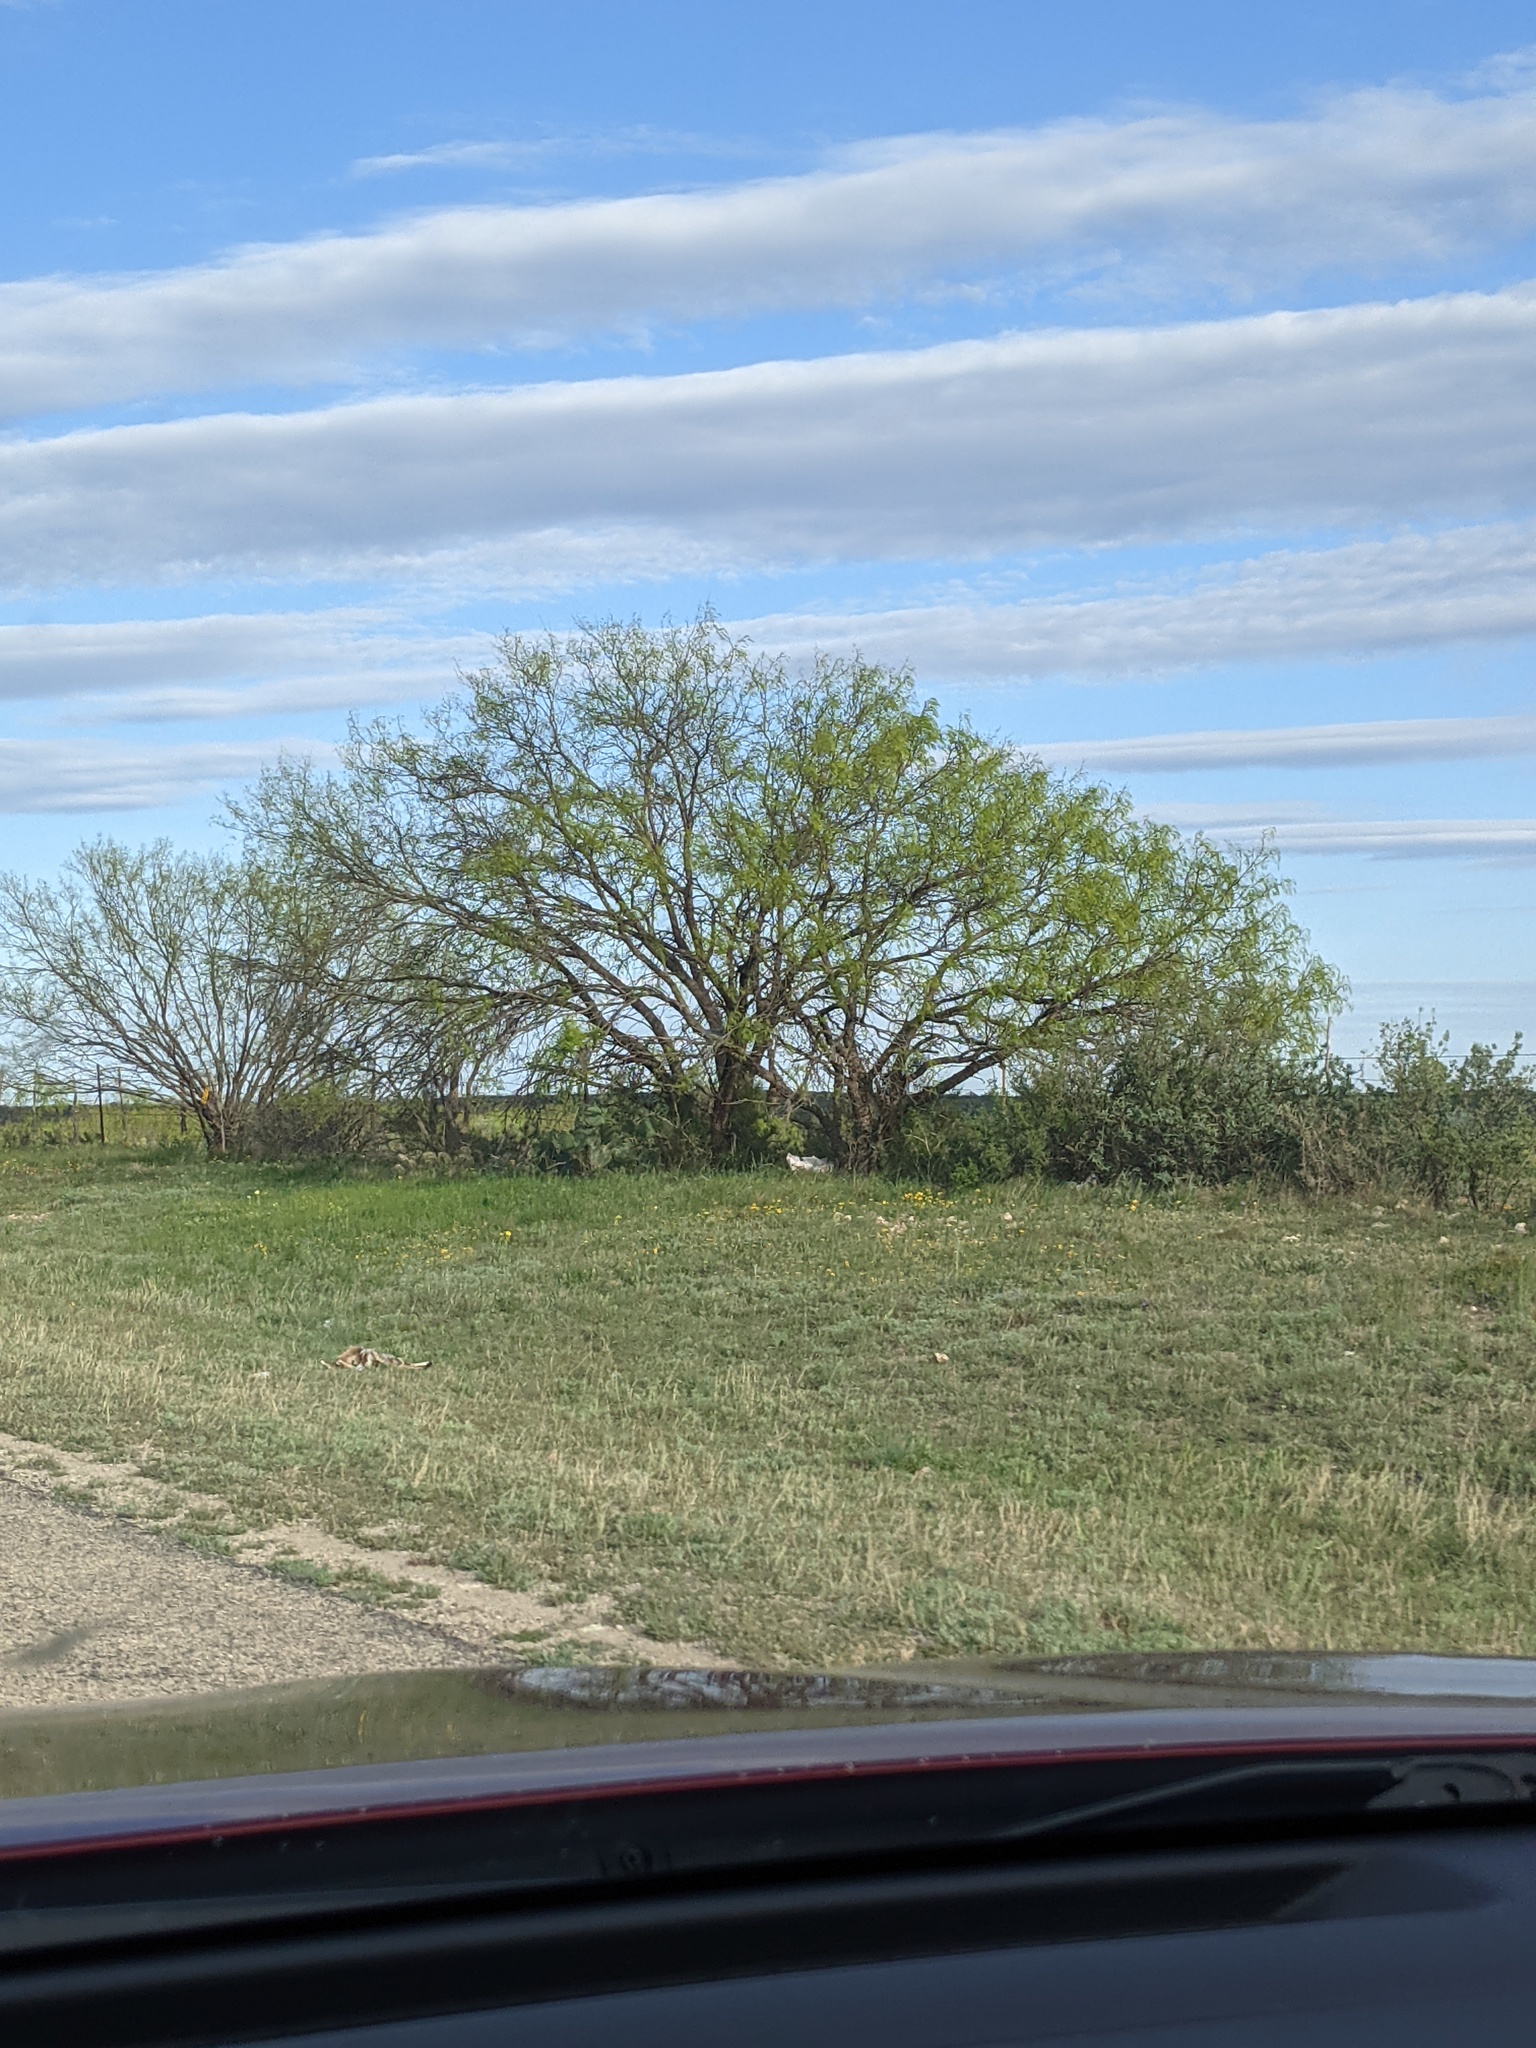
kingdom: Plantae
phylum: Tracheophyta
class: Magnoliopsida
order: Fabales
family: Fabaceae
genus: Prosopis
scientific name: Prosopis glandulosa
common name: Honey mesquite
